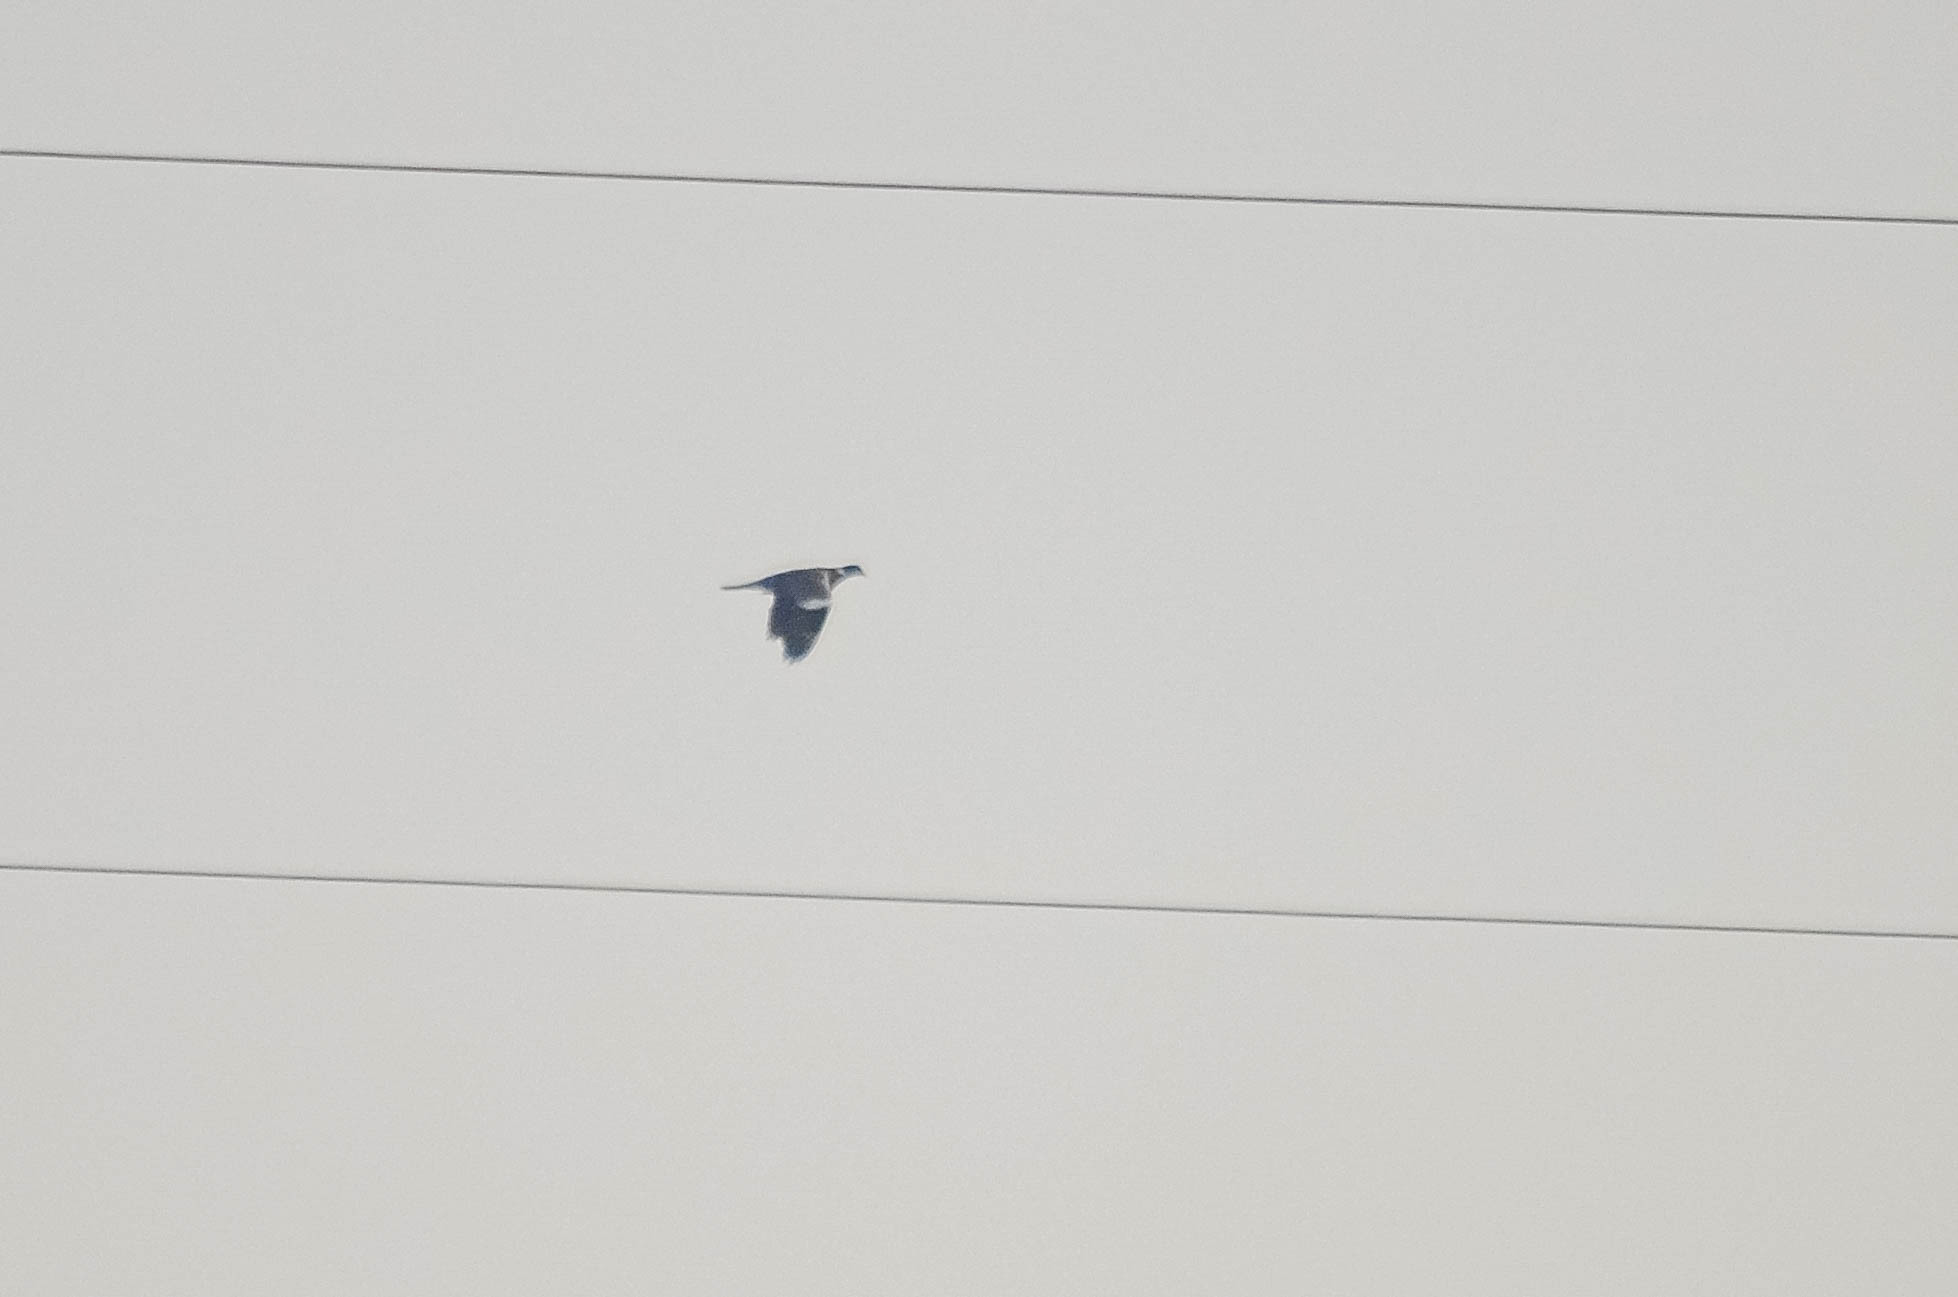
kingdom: Animalia
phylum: Chordata
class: Aves
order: Columbiformes
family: Columbidae
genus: Columba
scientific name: Columba palumbus
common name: Common wood pigeon
